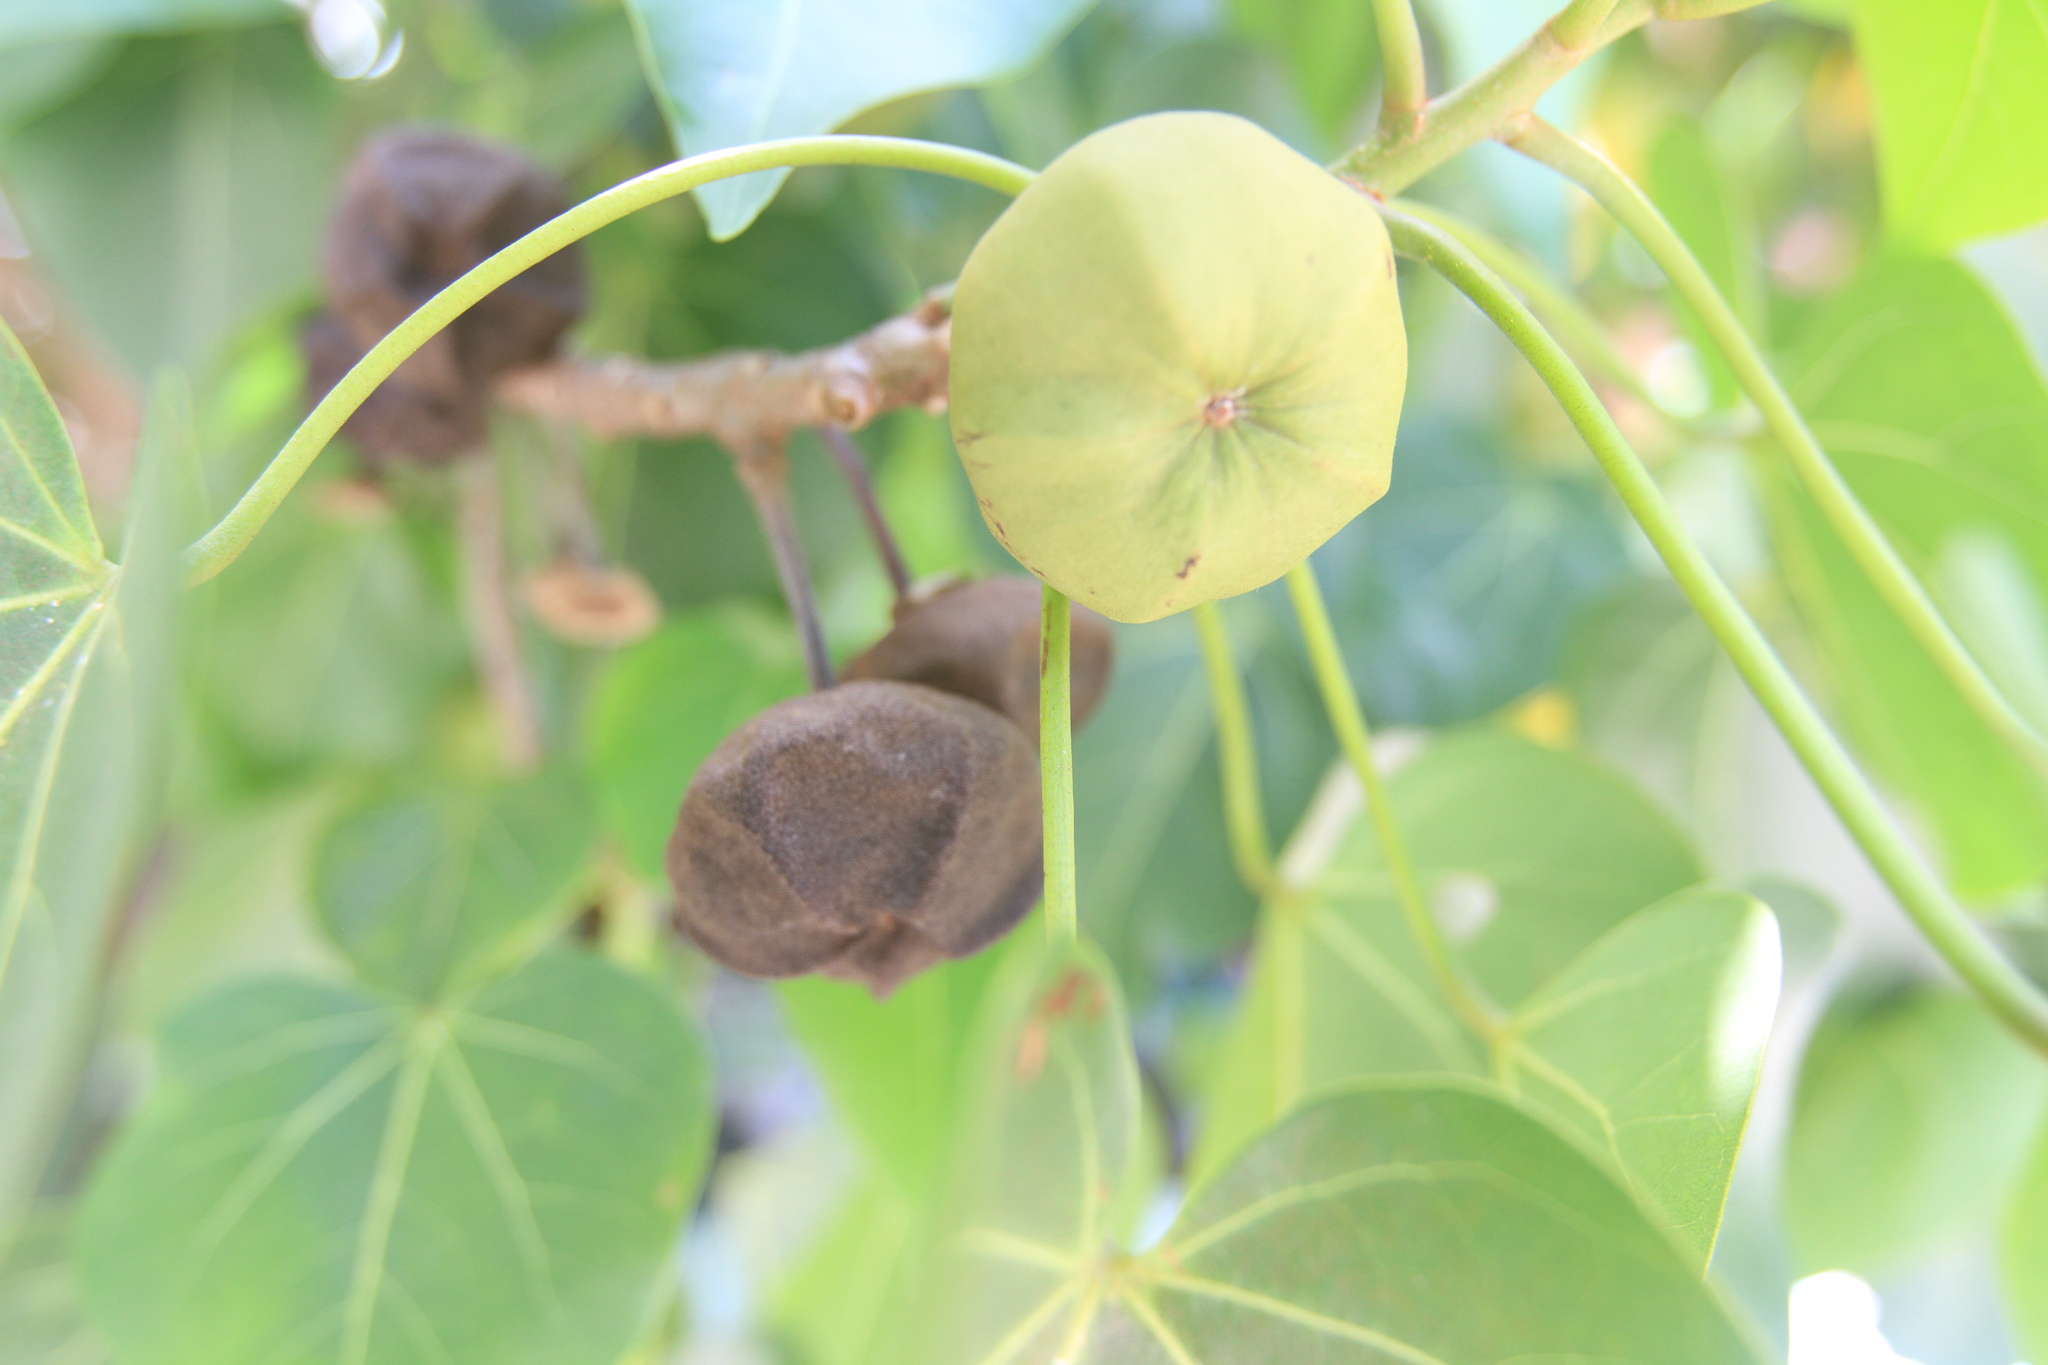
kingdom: Plantae
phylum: Tracheophyta
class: Magnoliopsida
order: Malvales
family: Malvaceae
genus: Thespesia
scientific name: Thespesia populnea
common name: Seaside mahoe
